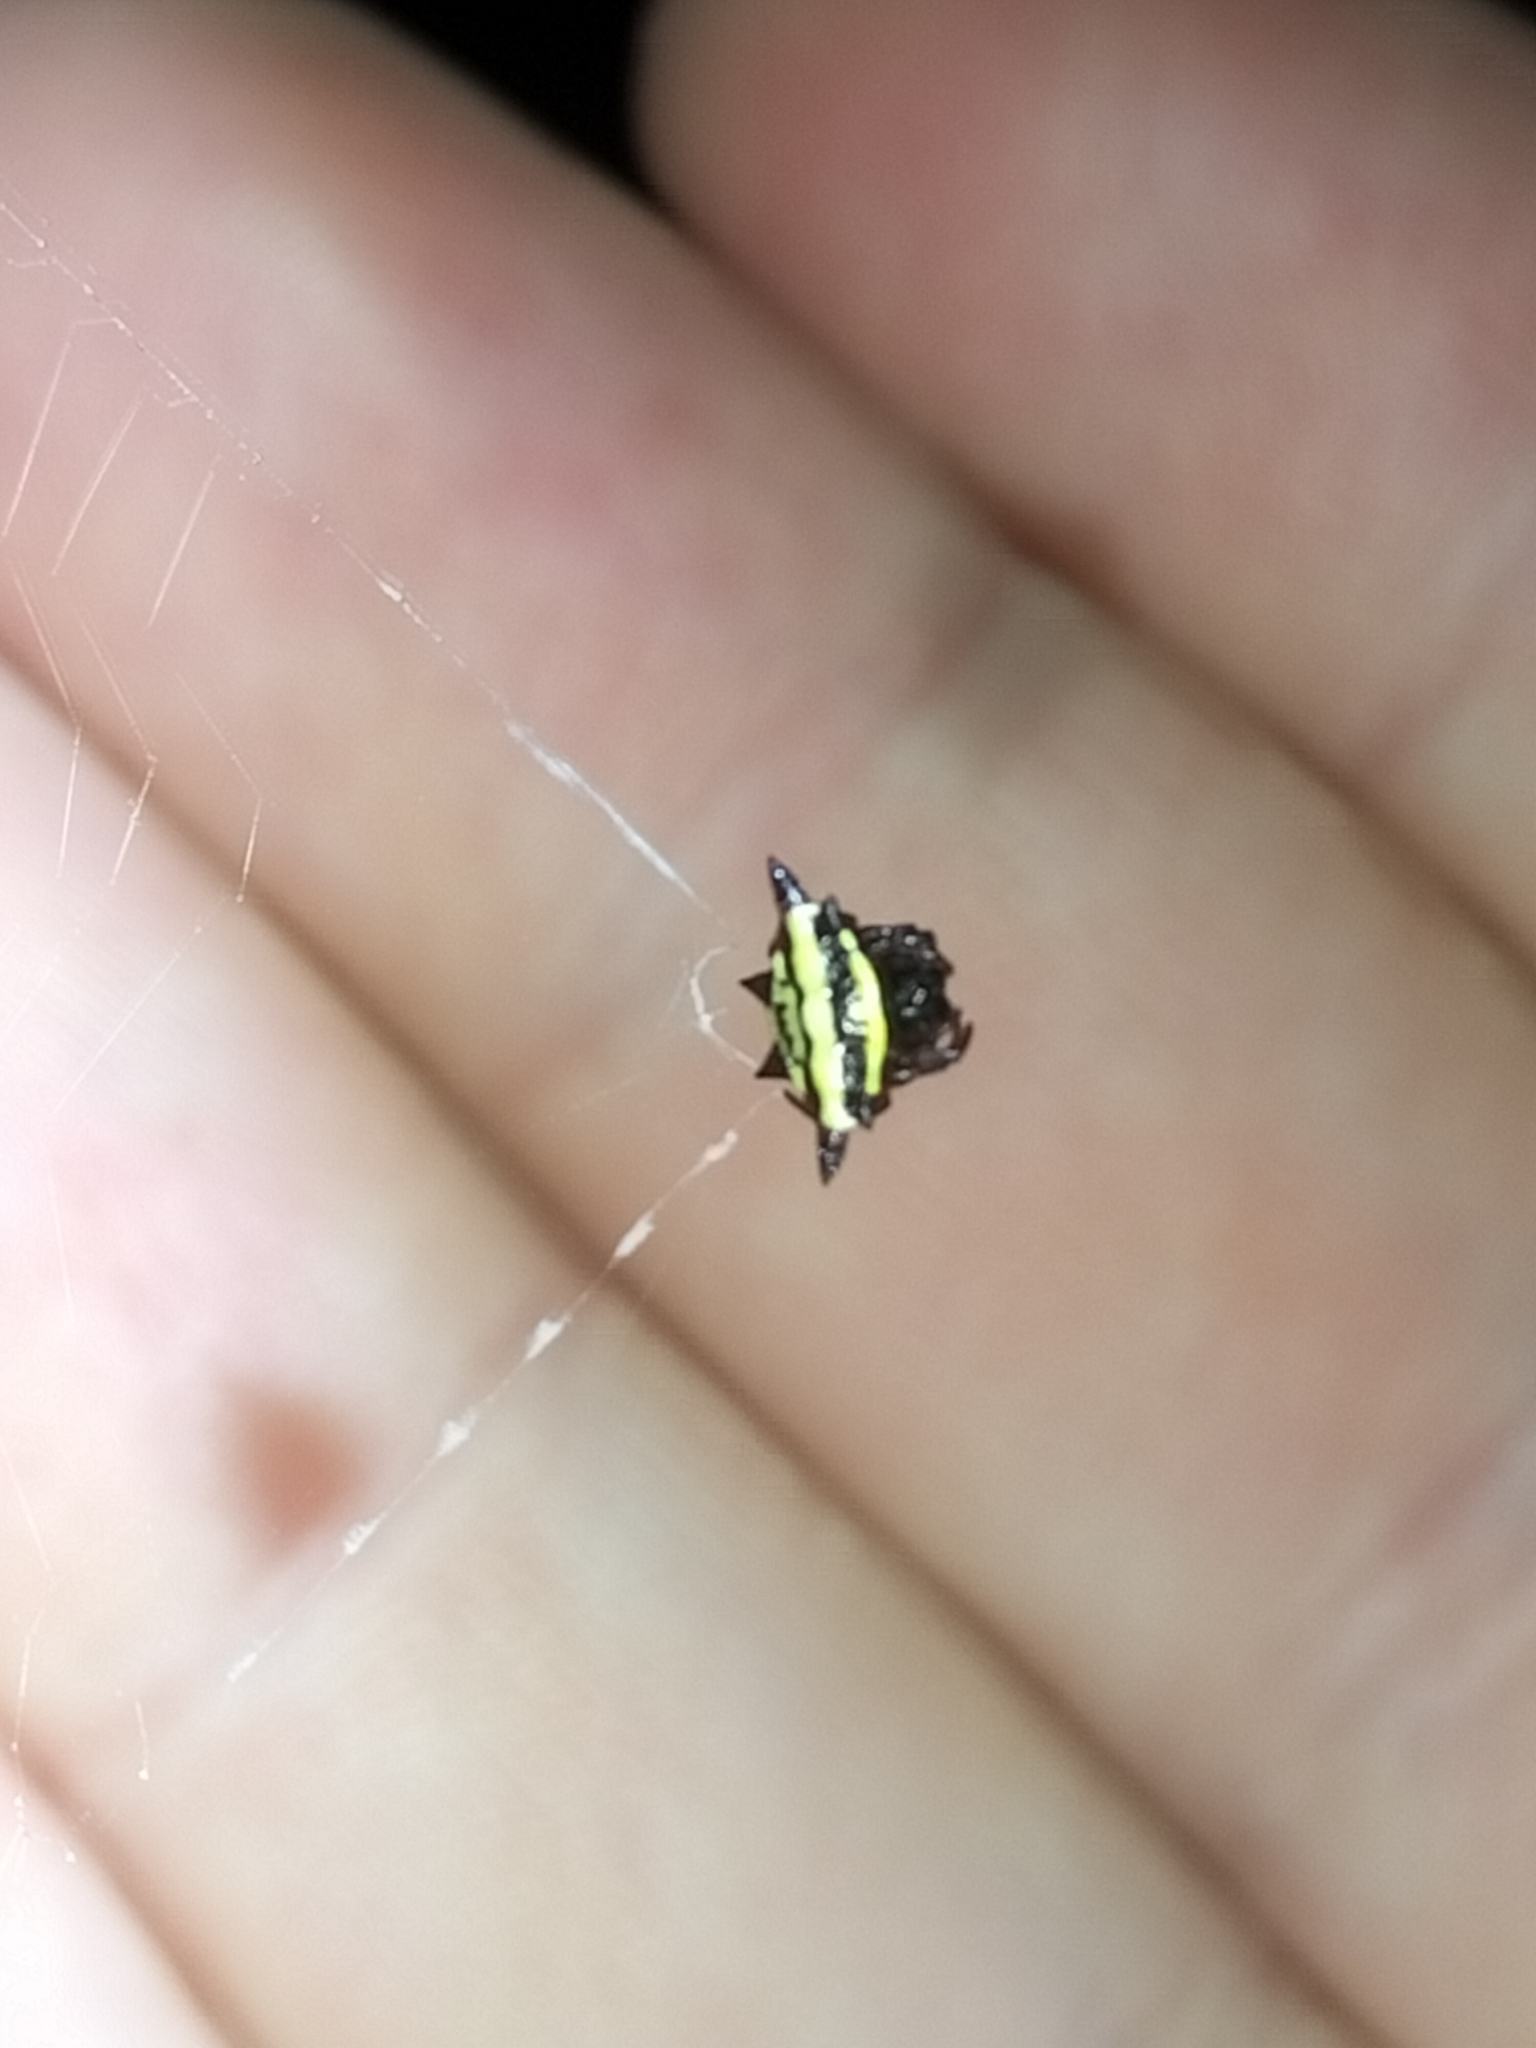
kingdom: Animalia
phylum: Arthropoda
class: Arachnida
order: Araneae
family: Araneidae
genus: Gasteracantha
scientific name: Gasteracantha fornicata
